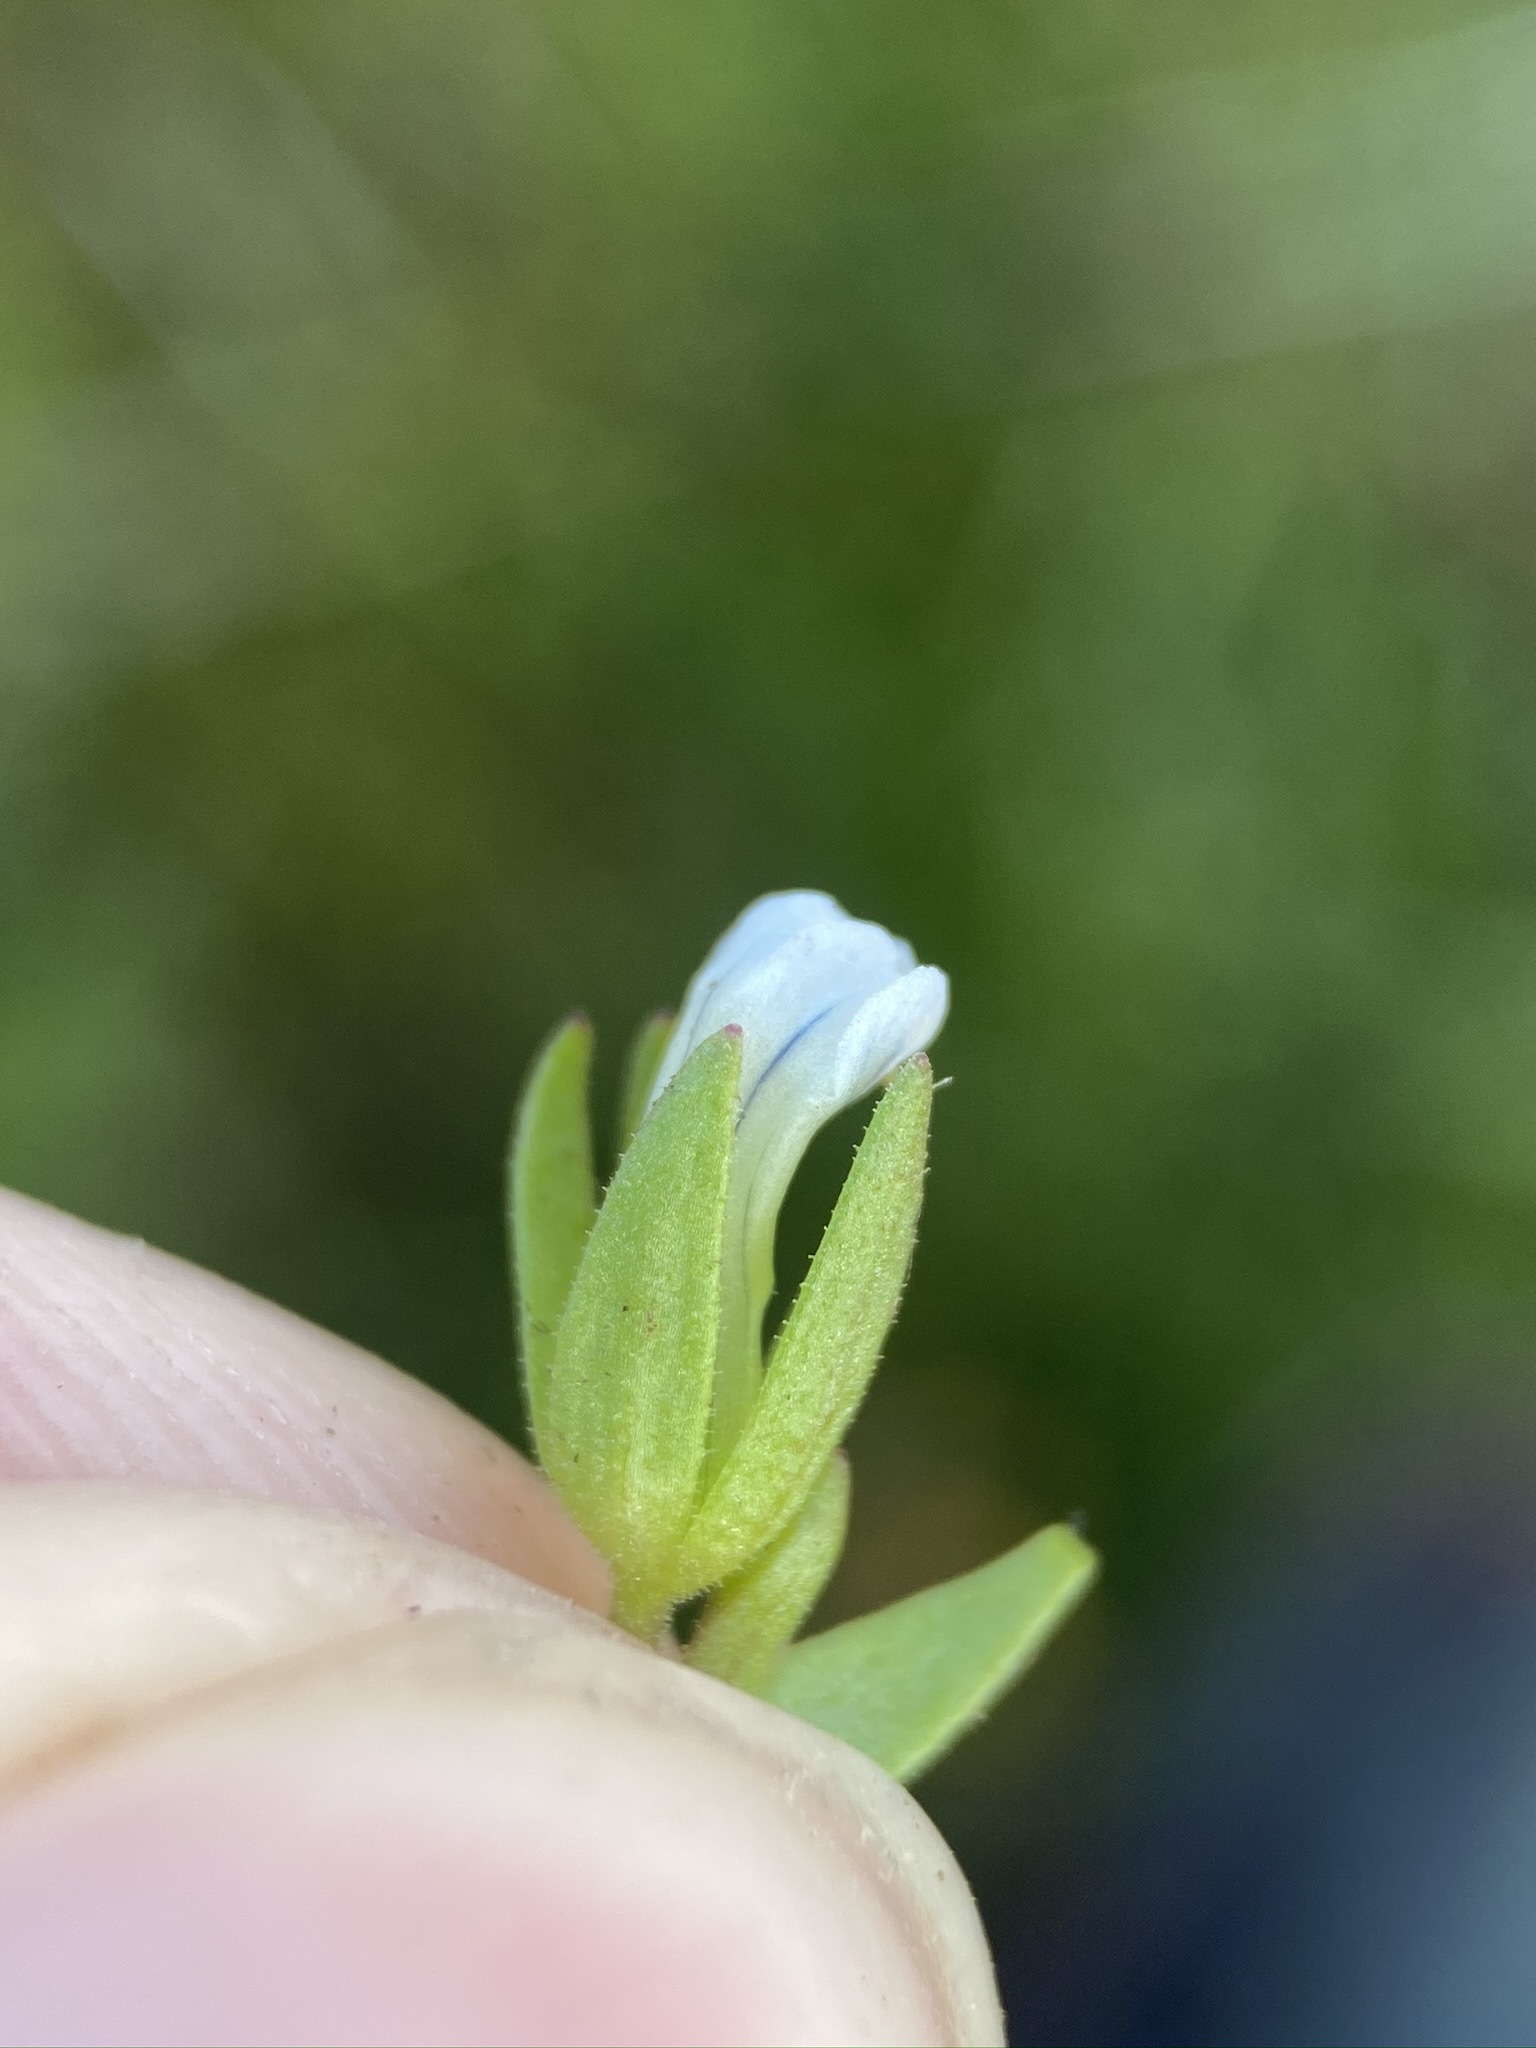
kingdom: Plantae
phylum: Tracheophyta
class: Magnoliopsida
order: Lamiales
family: Plantaginaceae
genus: Gratiola
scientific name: Gratiola ebracteata
